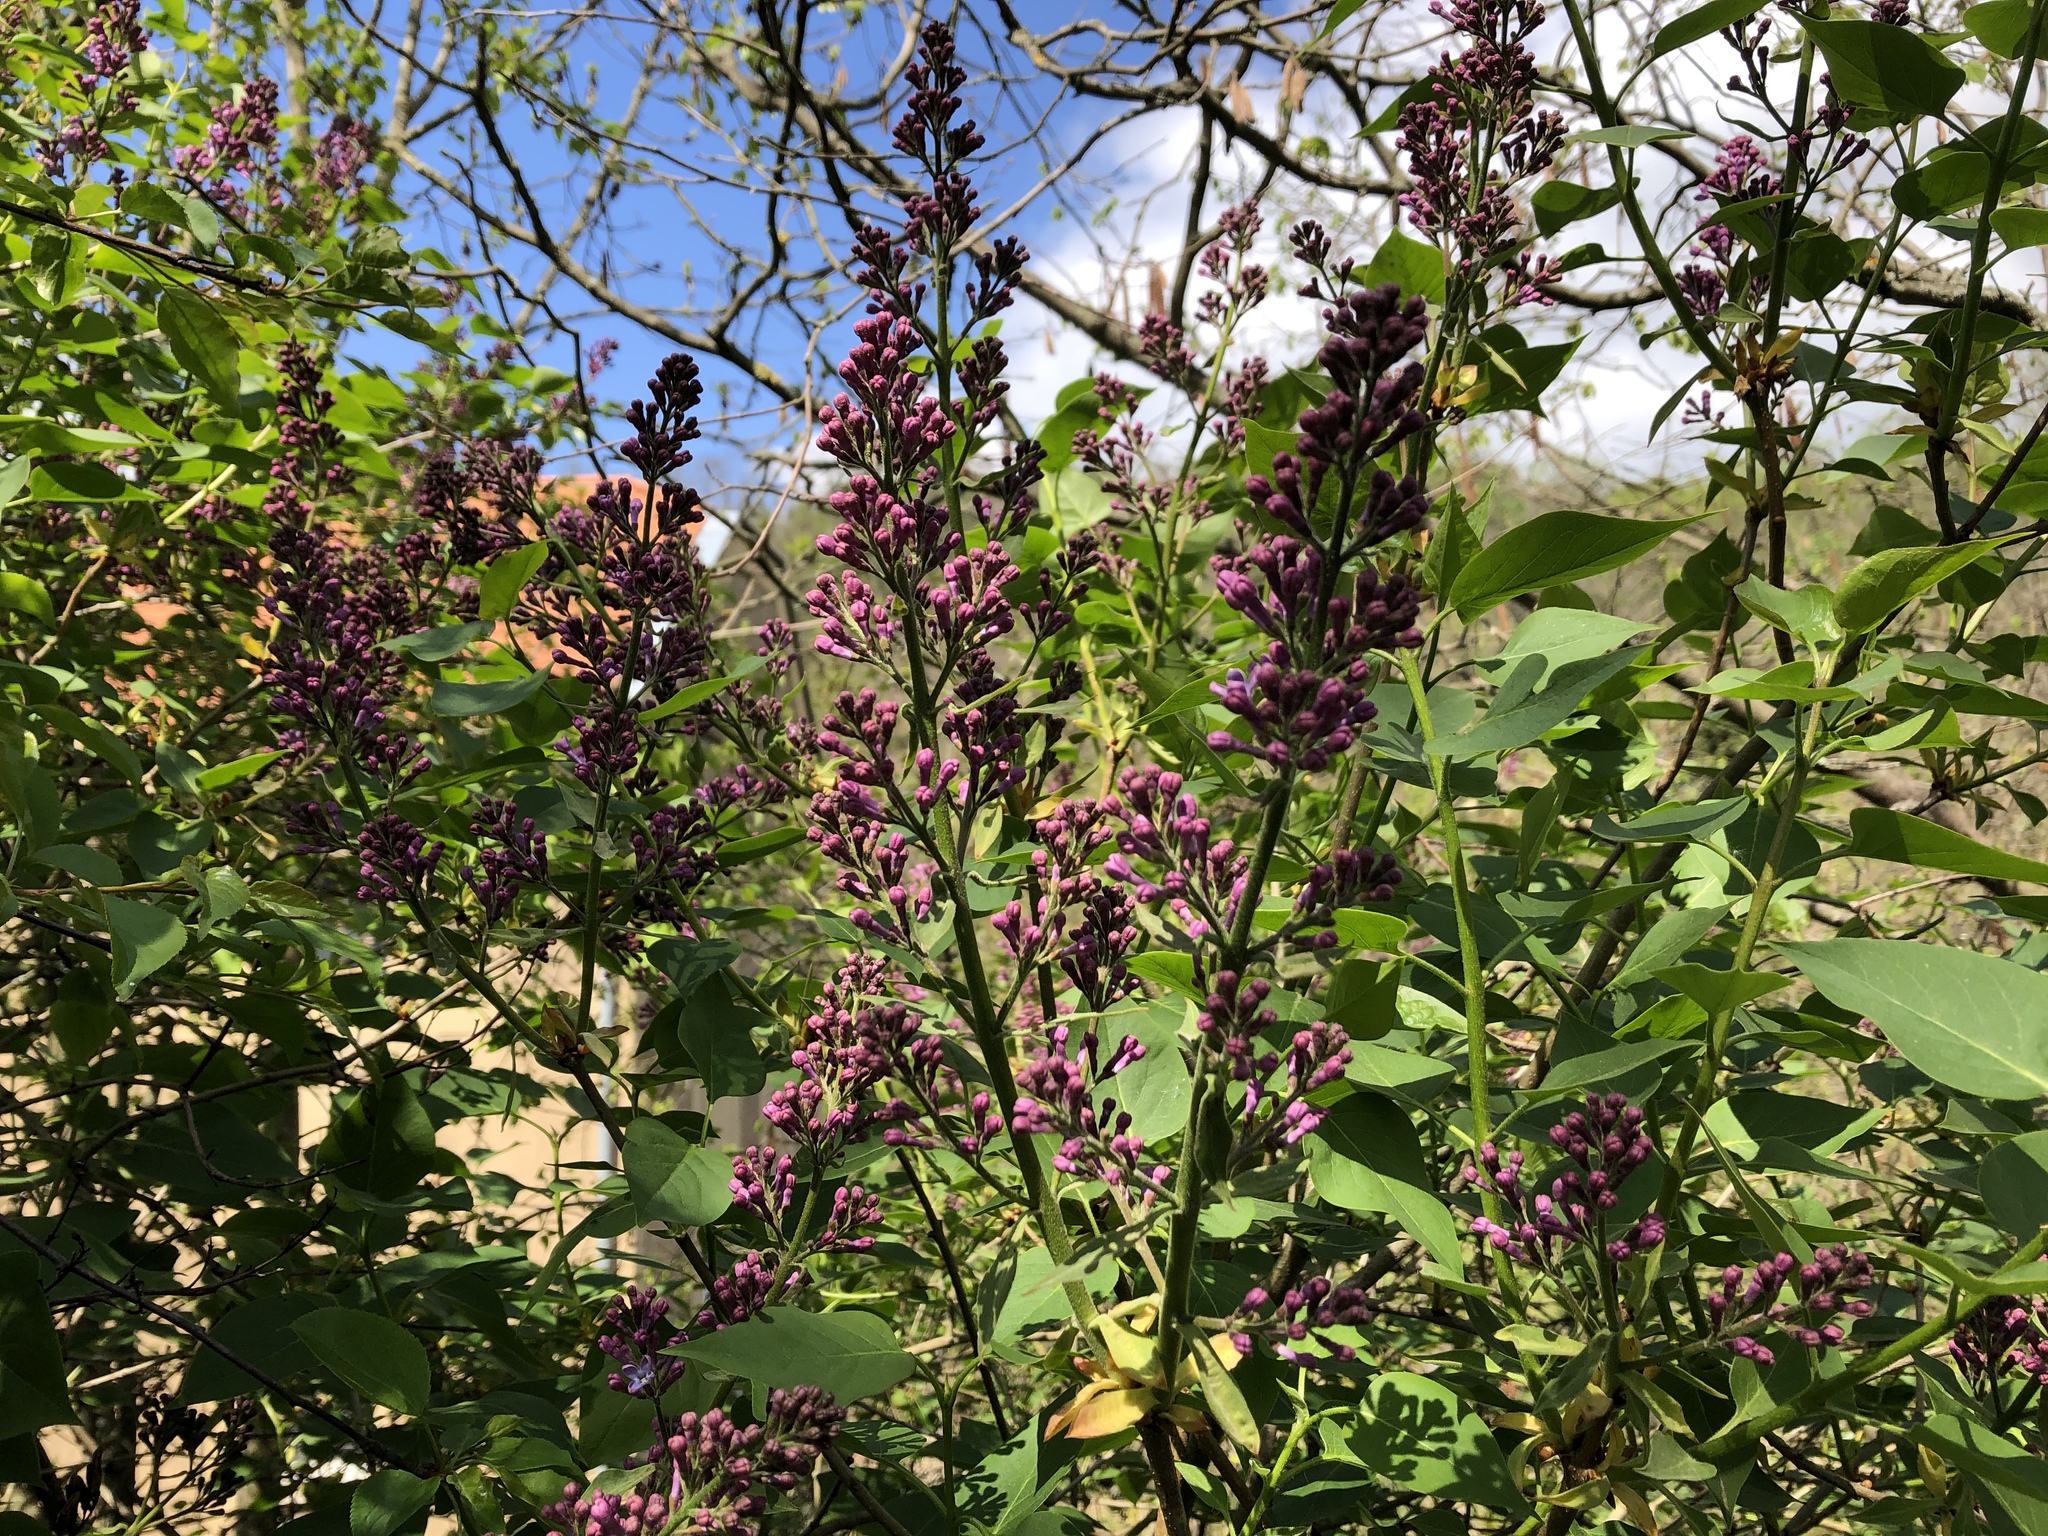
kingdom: Plantae
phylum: Tracheophyta
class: Magnoliopsida
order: Lamiales
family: Oleaceae
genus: Syringa
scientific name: Syringa vulgaris
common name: Common lilac
